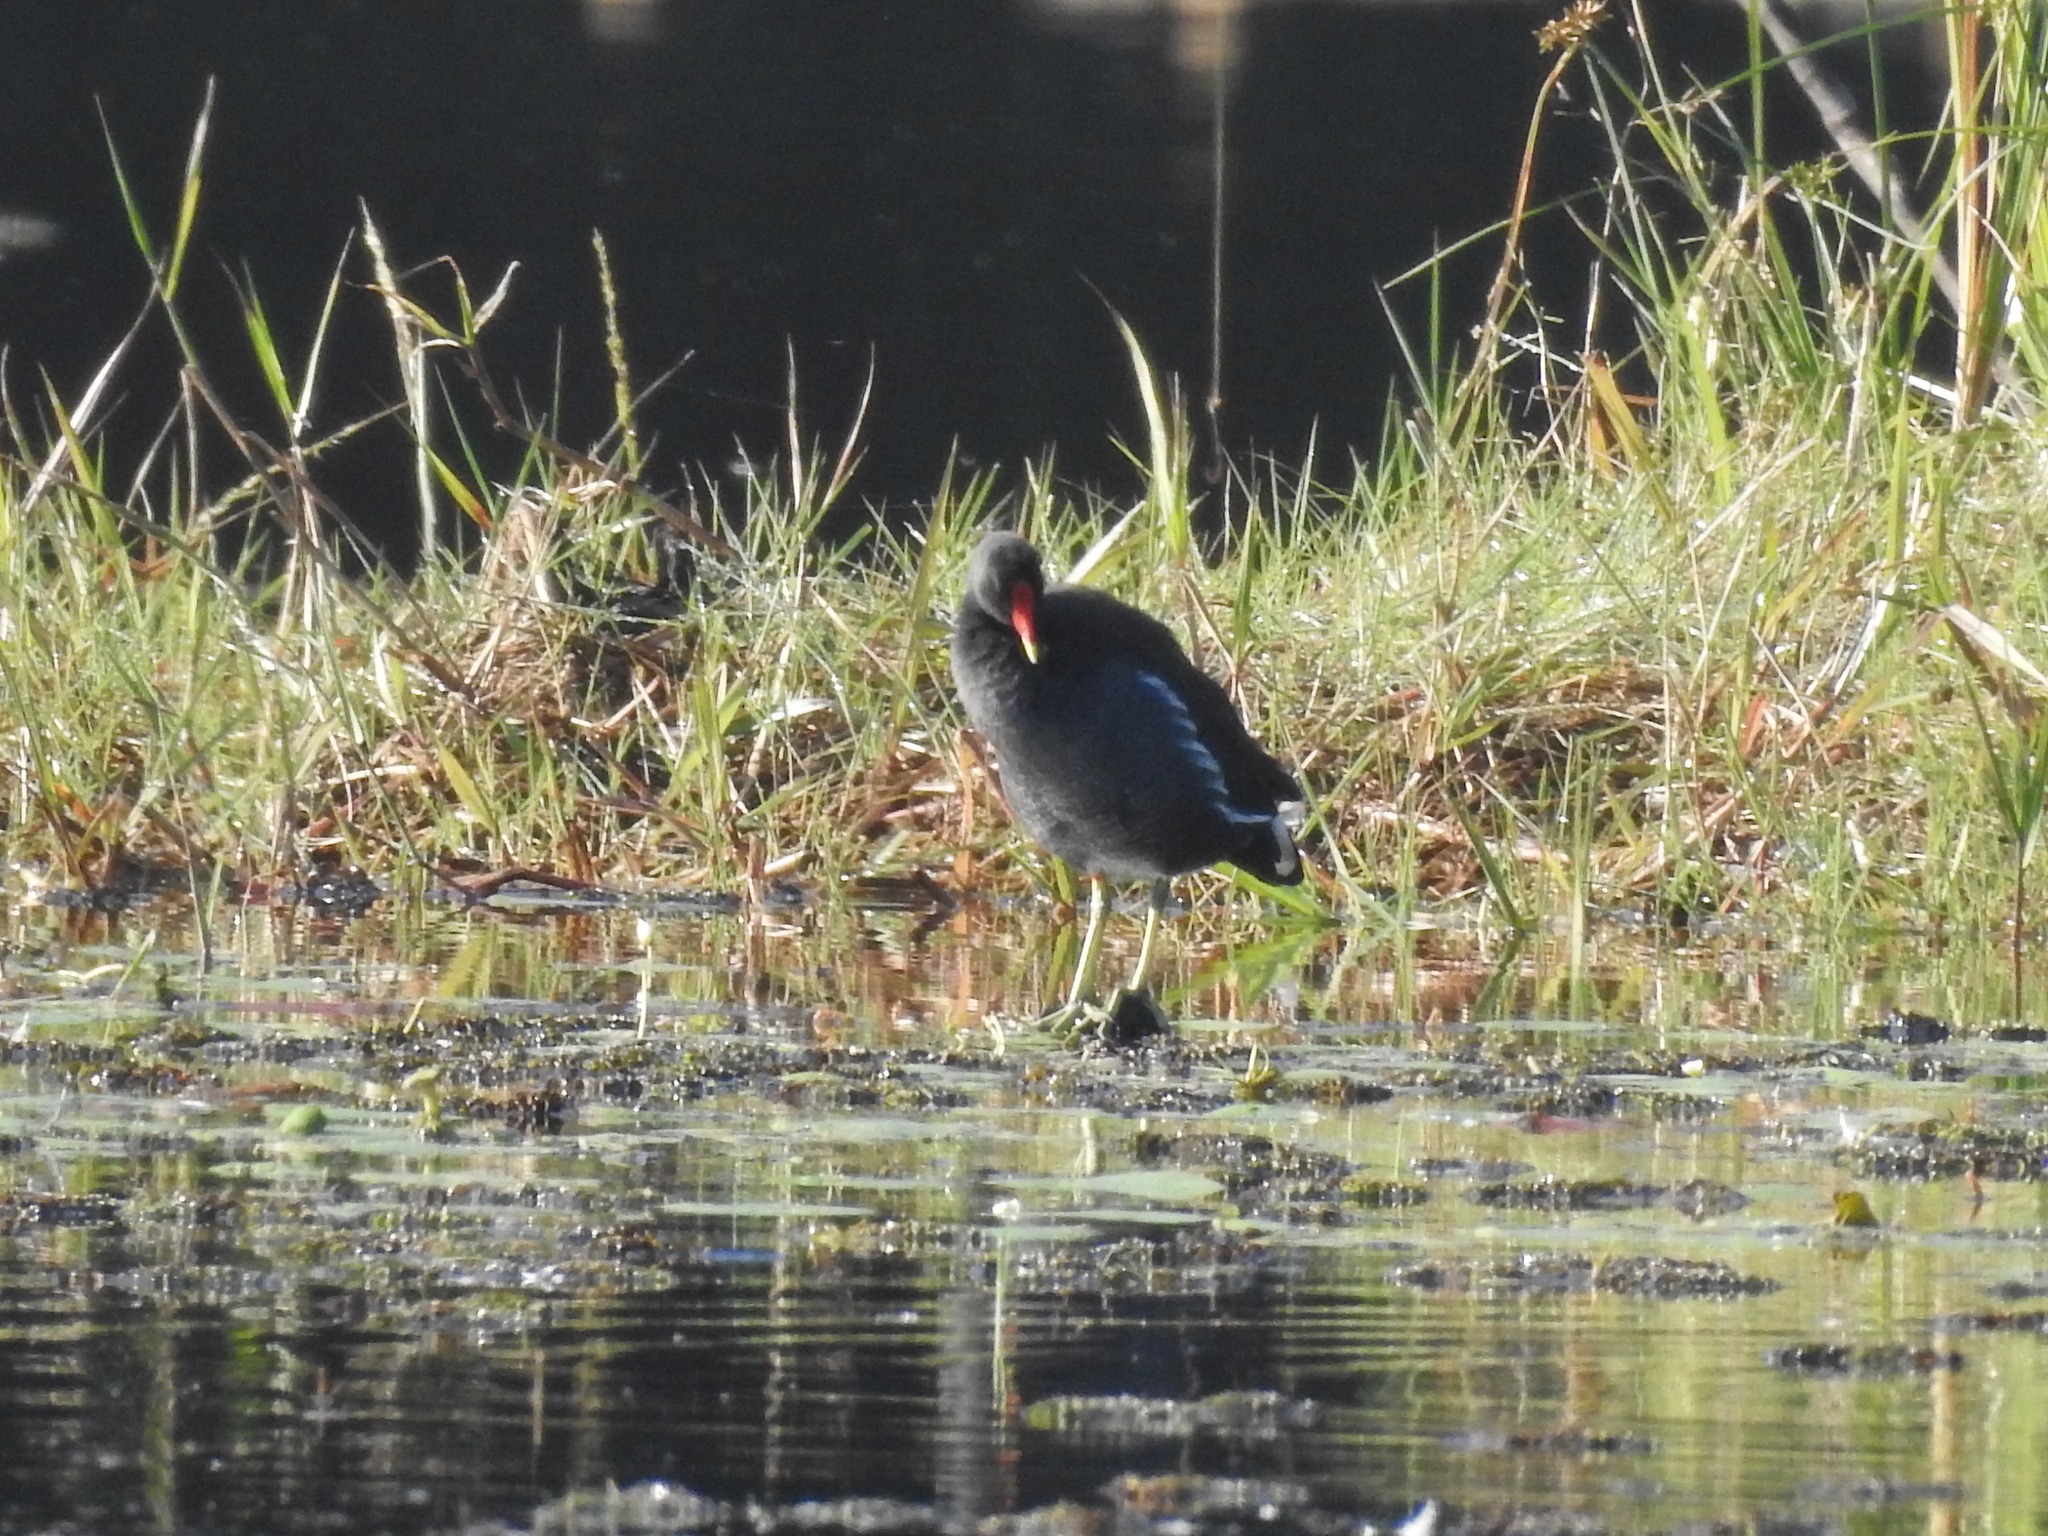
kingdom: Animalia
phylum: Chordata
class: Aves
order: Gruiformes
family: Rallidae
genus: Gallinula
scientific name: Gallinula chloropus
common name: Common moorhen
